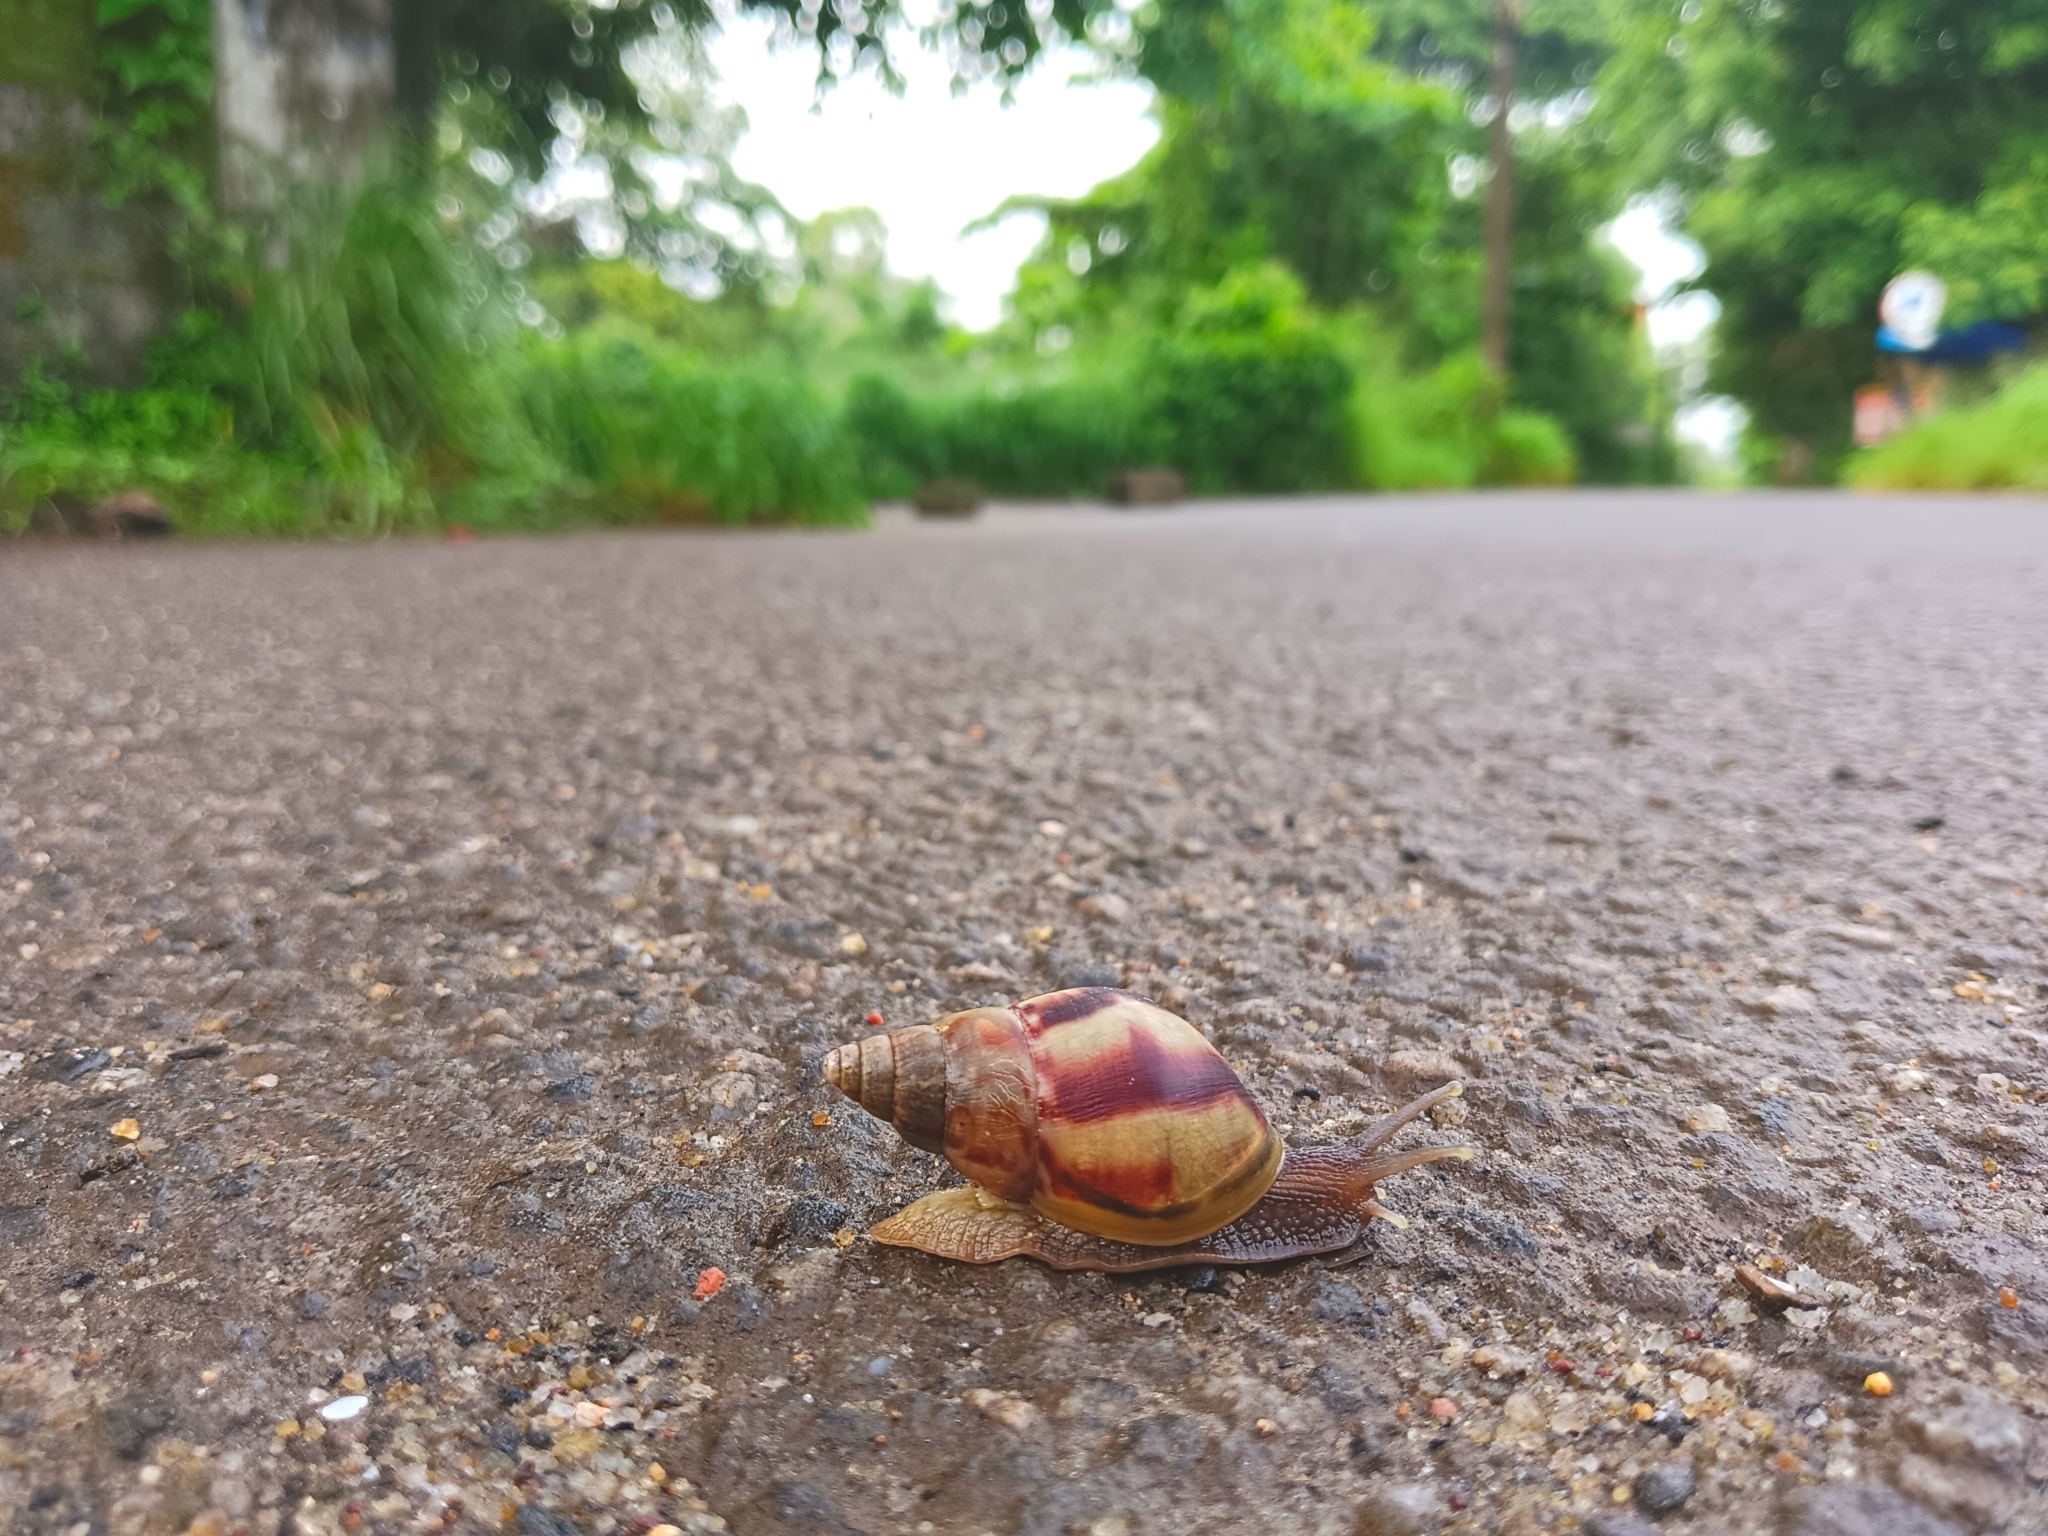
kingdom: Animalia
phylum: Mollusca
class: Gastropoda
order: Stylommatophora
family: Achatinidae
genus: Lissachatina
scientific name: Lissachatina fulica
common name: Giant african snail
